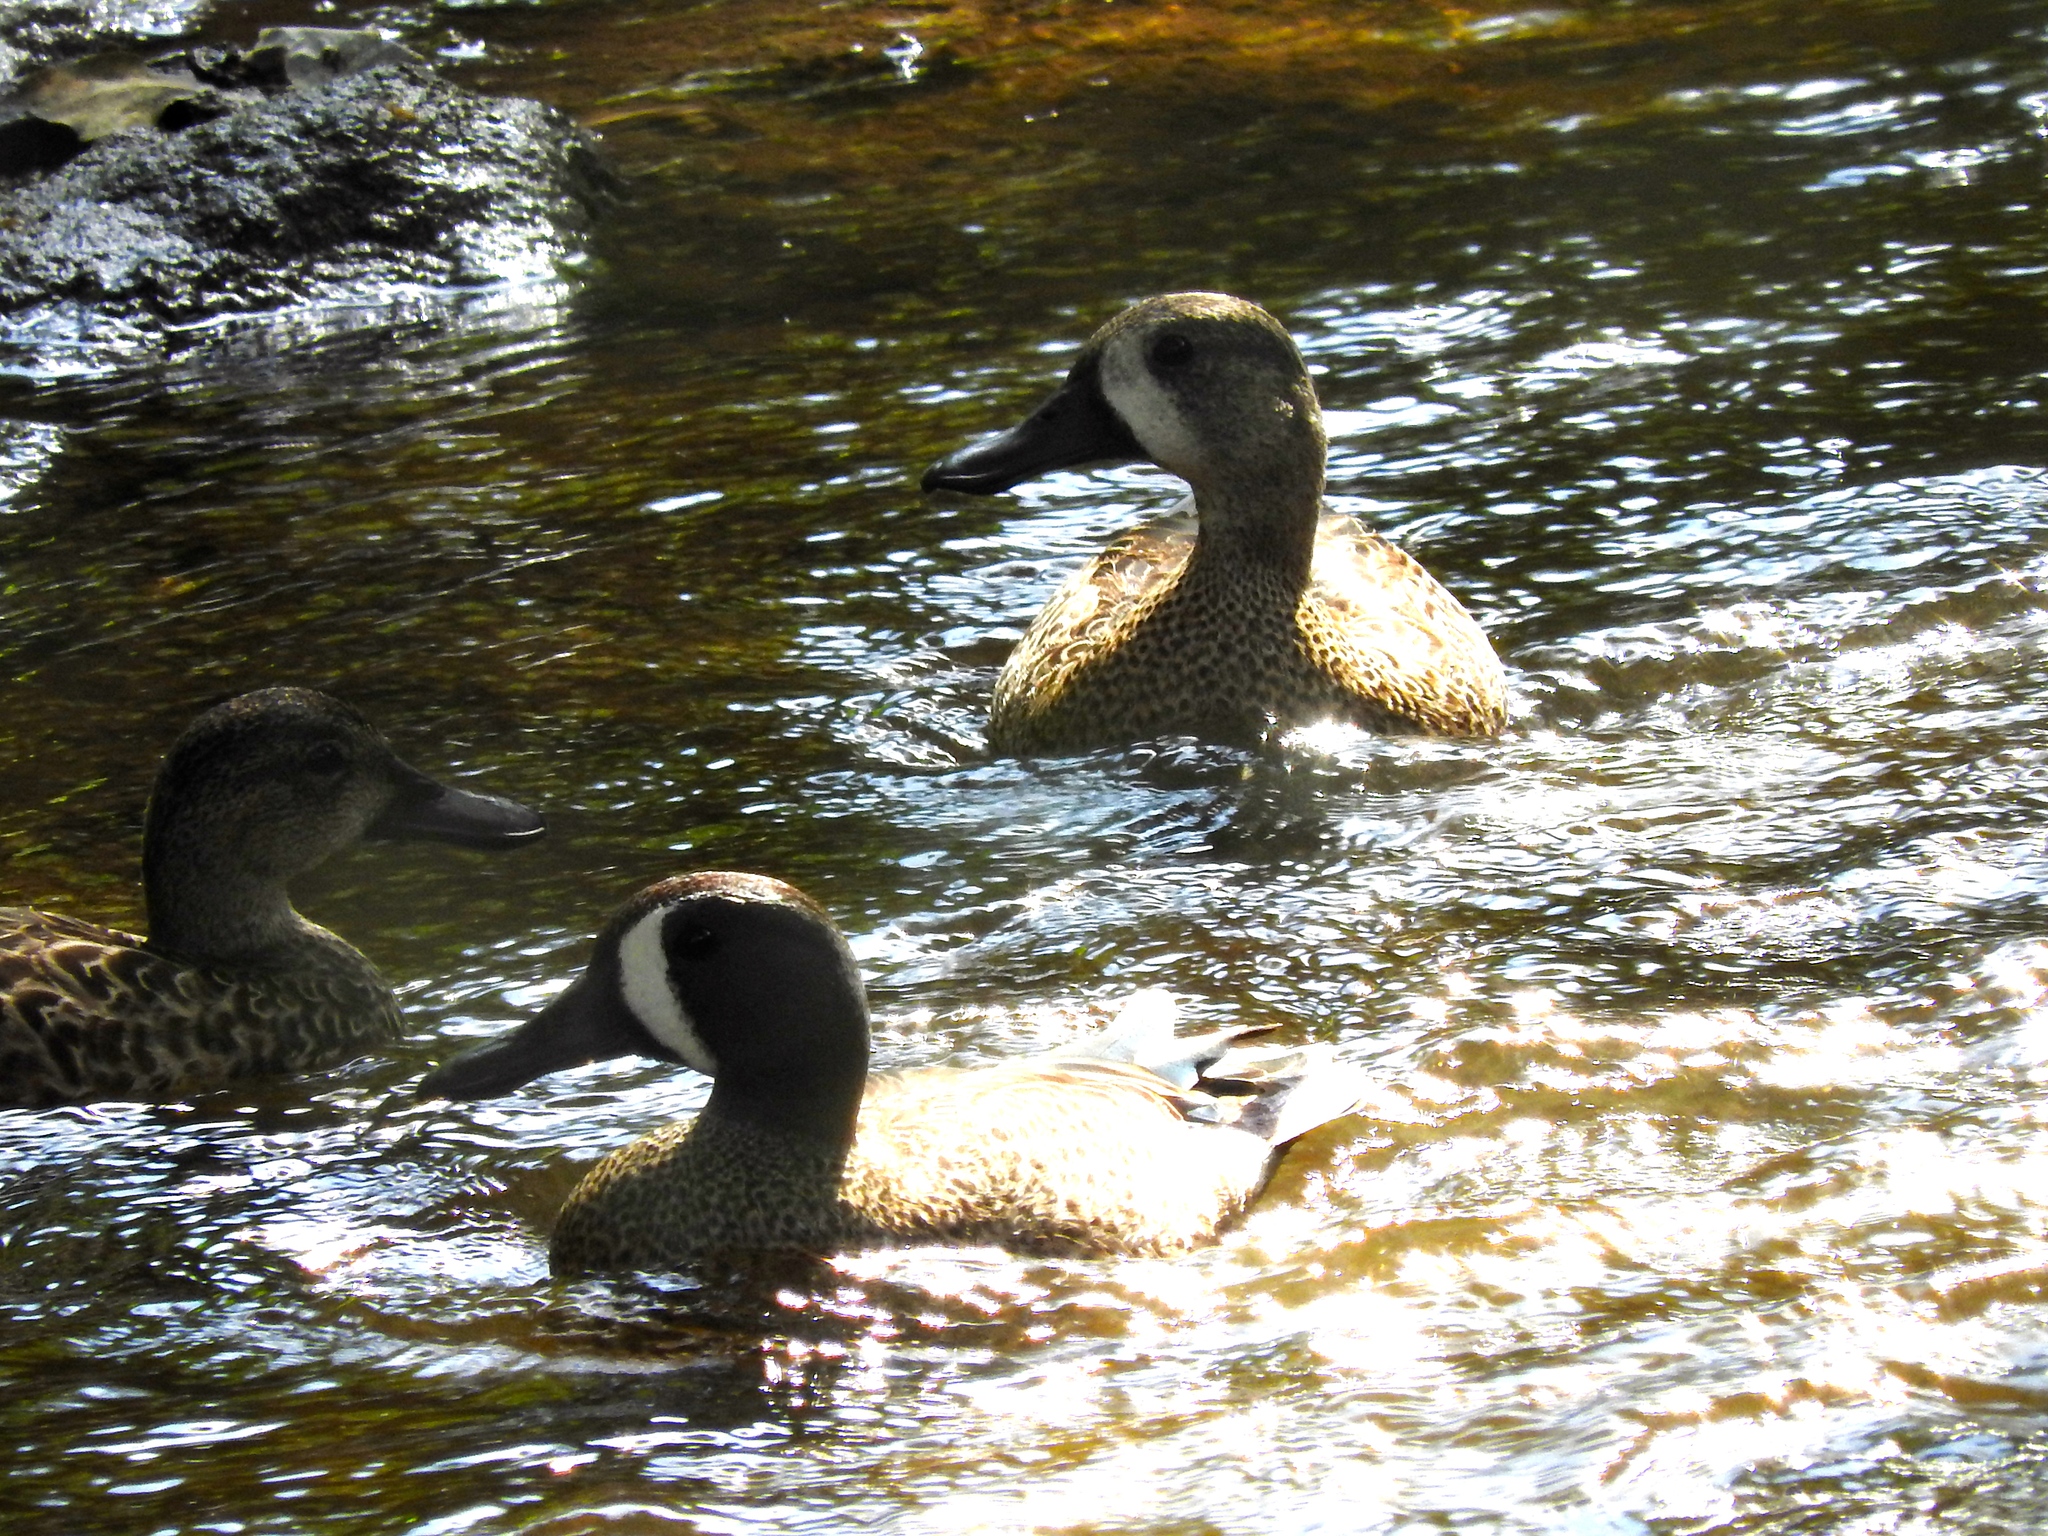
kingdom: Animalia
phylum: Chordata
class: Aves
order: Anseriformes
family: Anatidae
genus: Spatula
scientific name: Spatula discors
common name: Blue-winged teal
